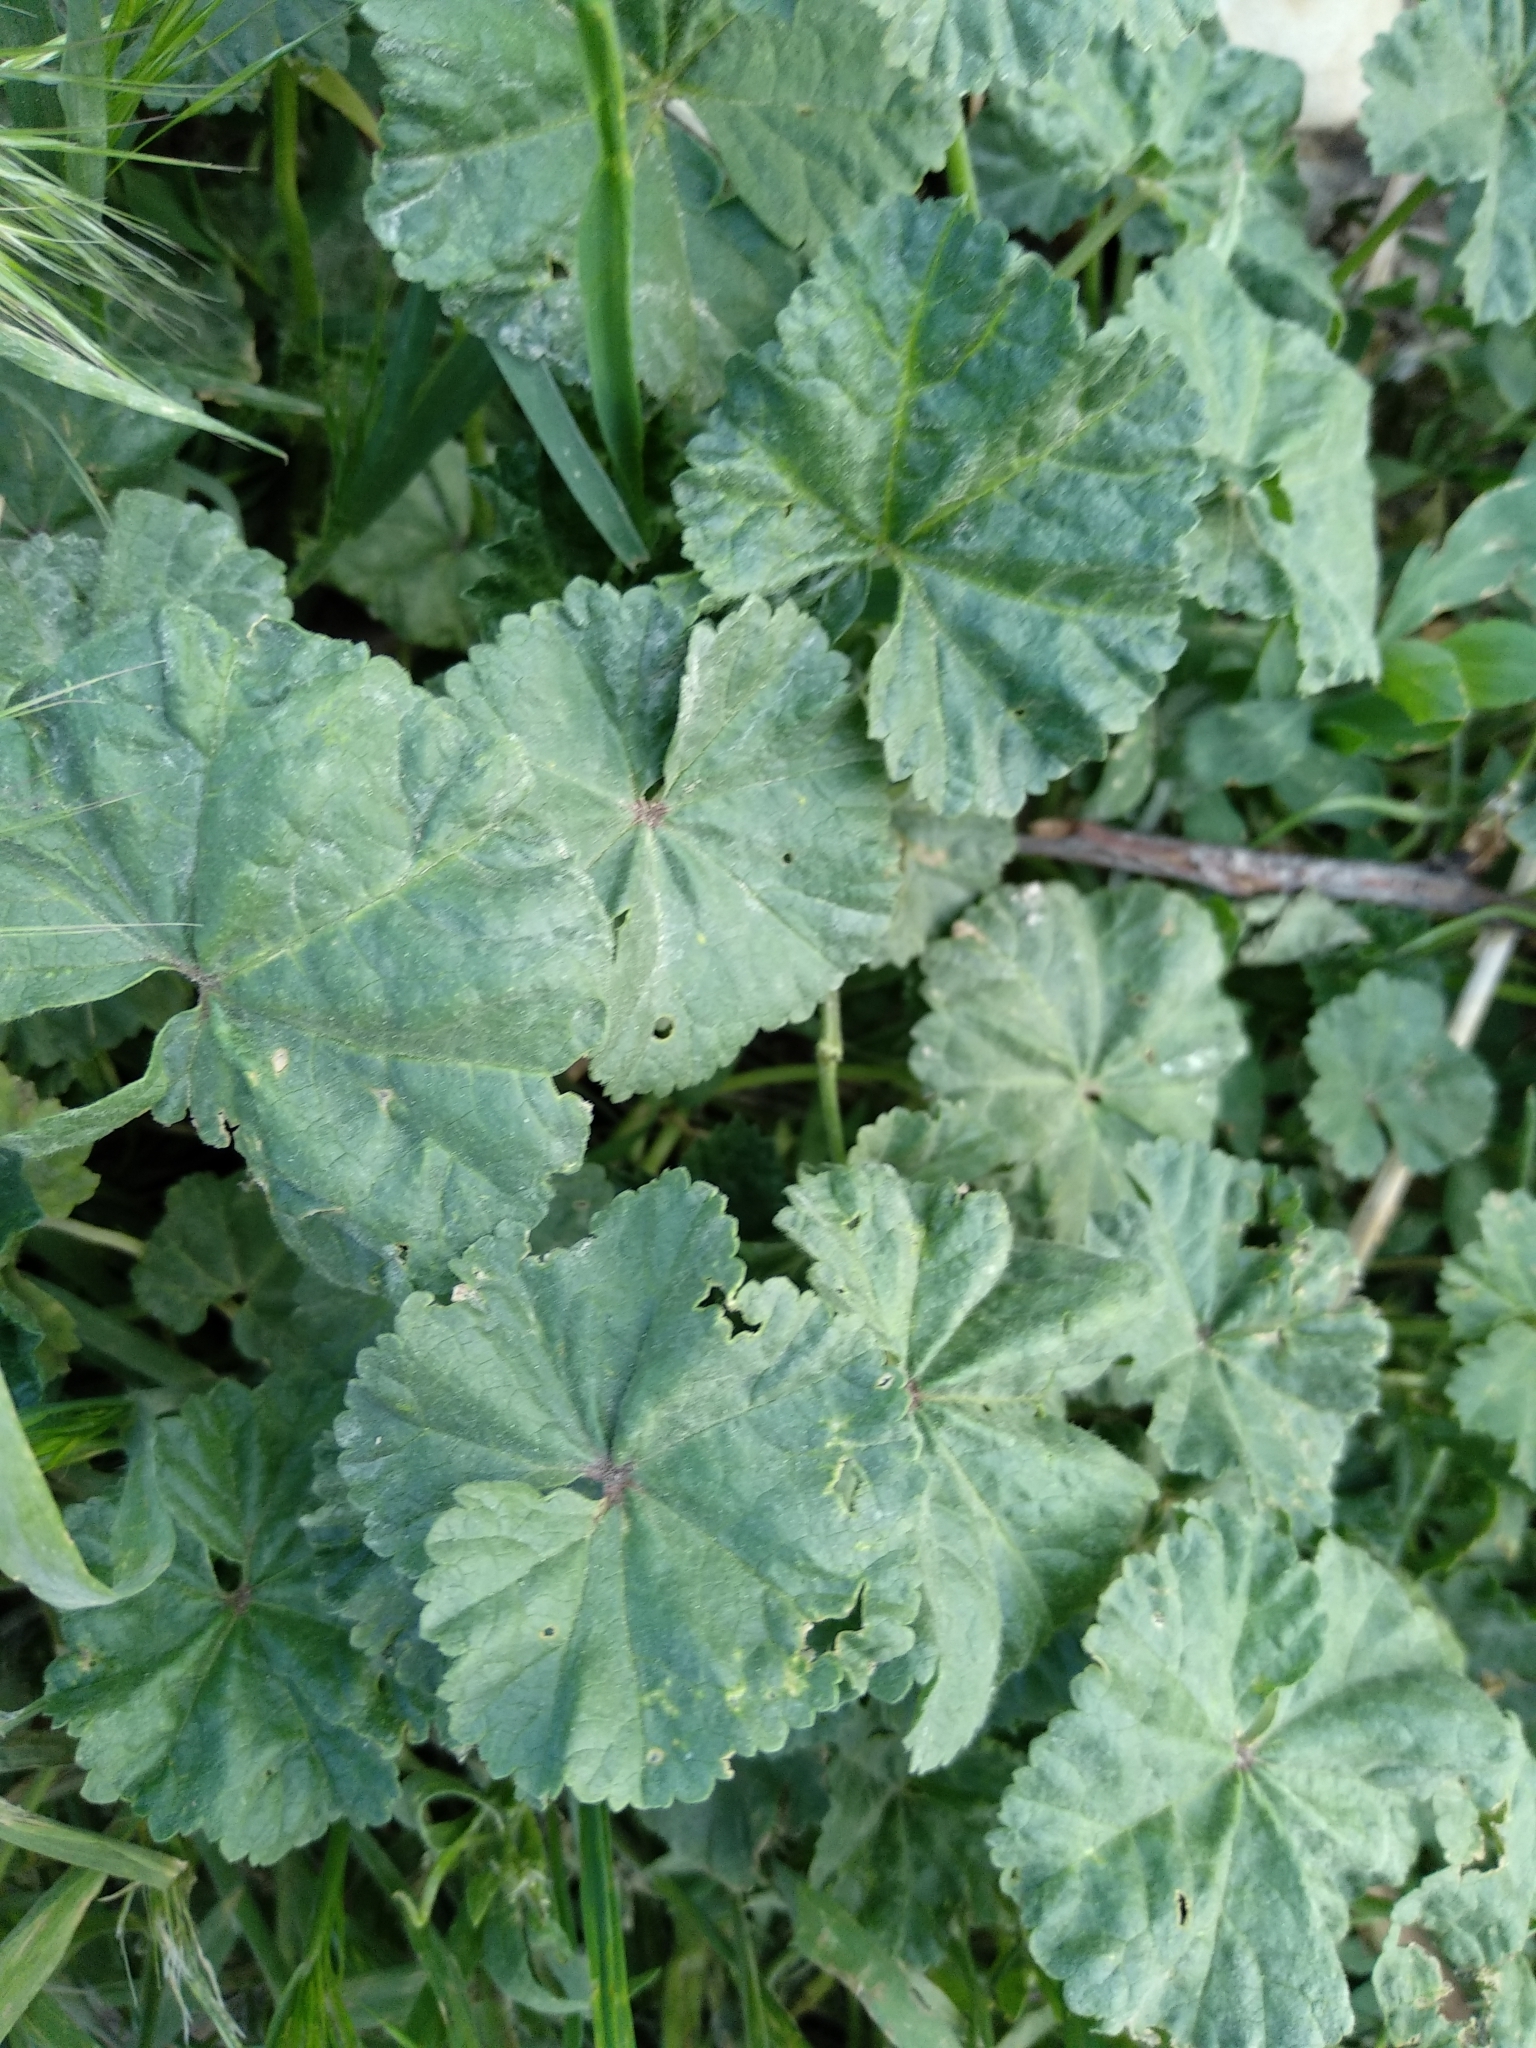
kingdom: Plantae
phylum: Tracheophyta
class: Magnoliopsida
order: Malvales
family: Malvaceae
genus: Malva
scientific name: Malva neglecta
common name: Common mallow
